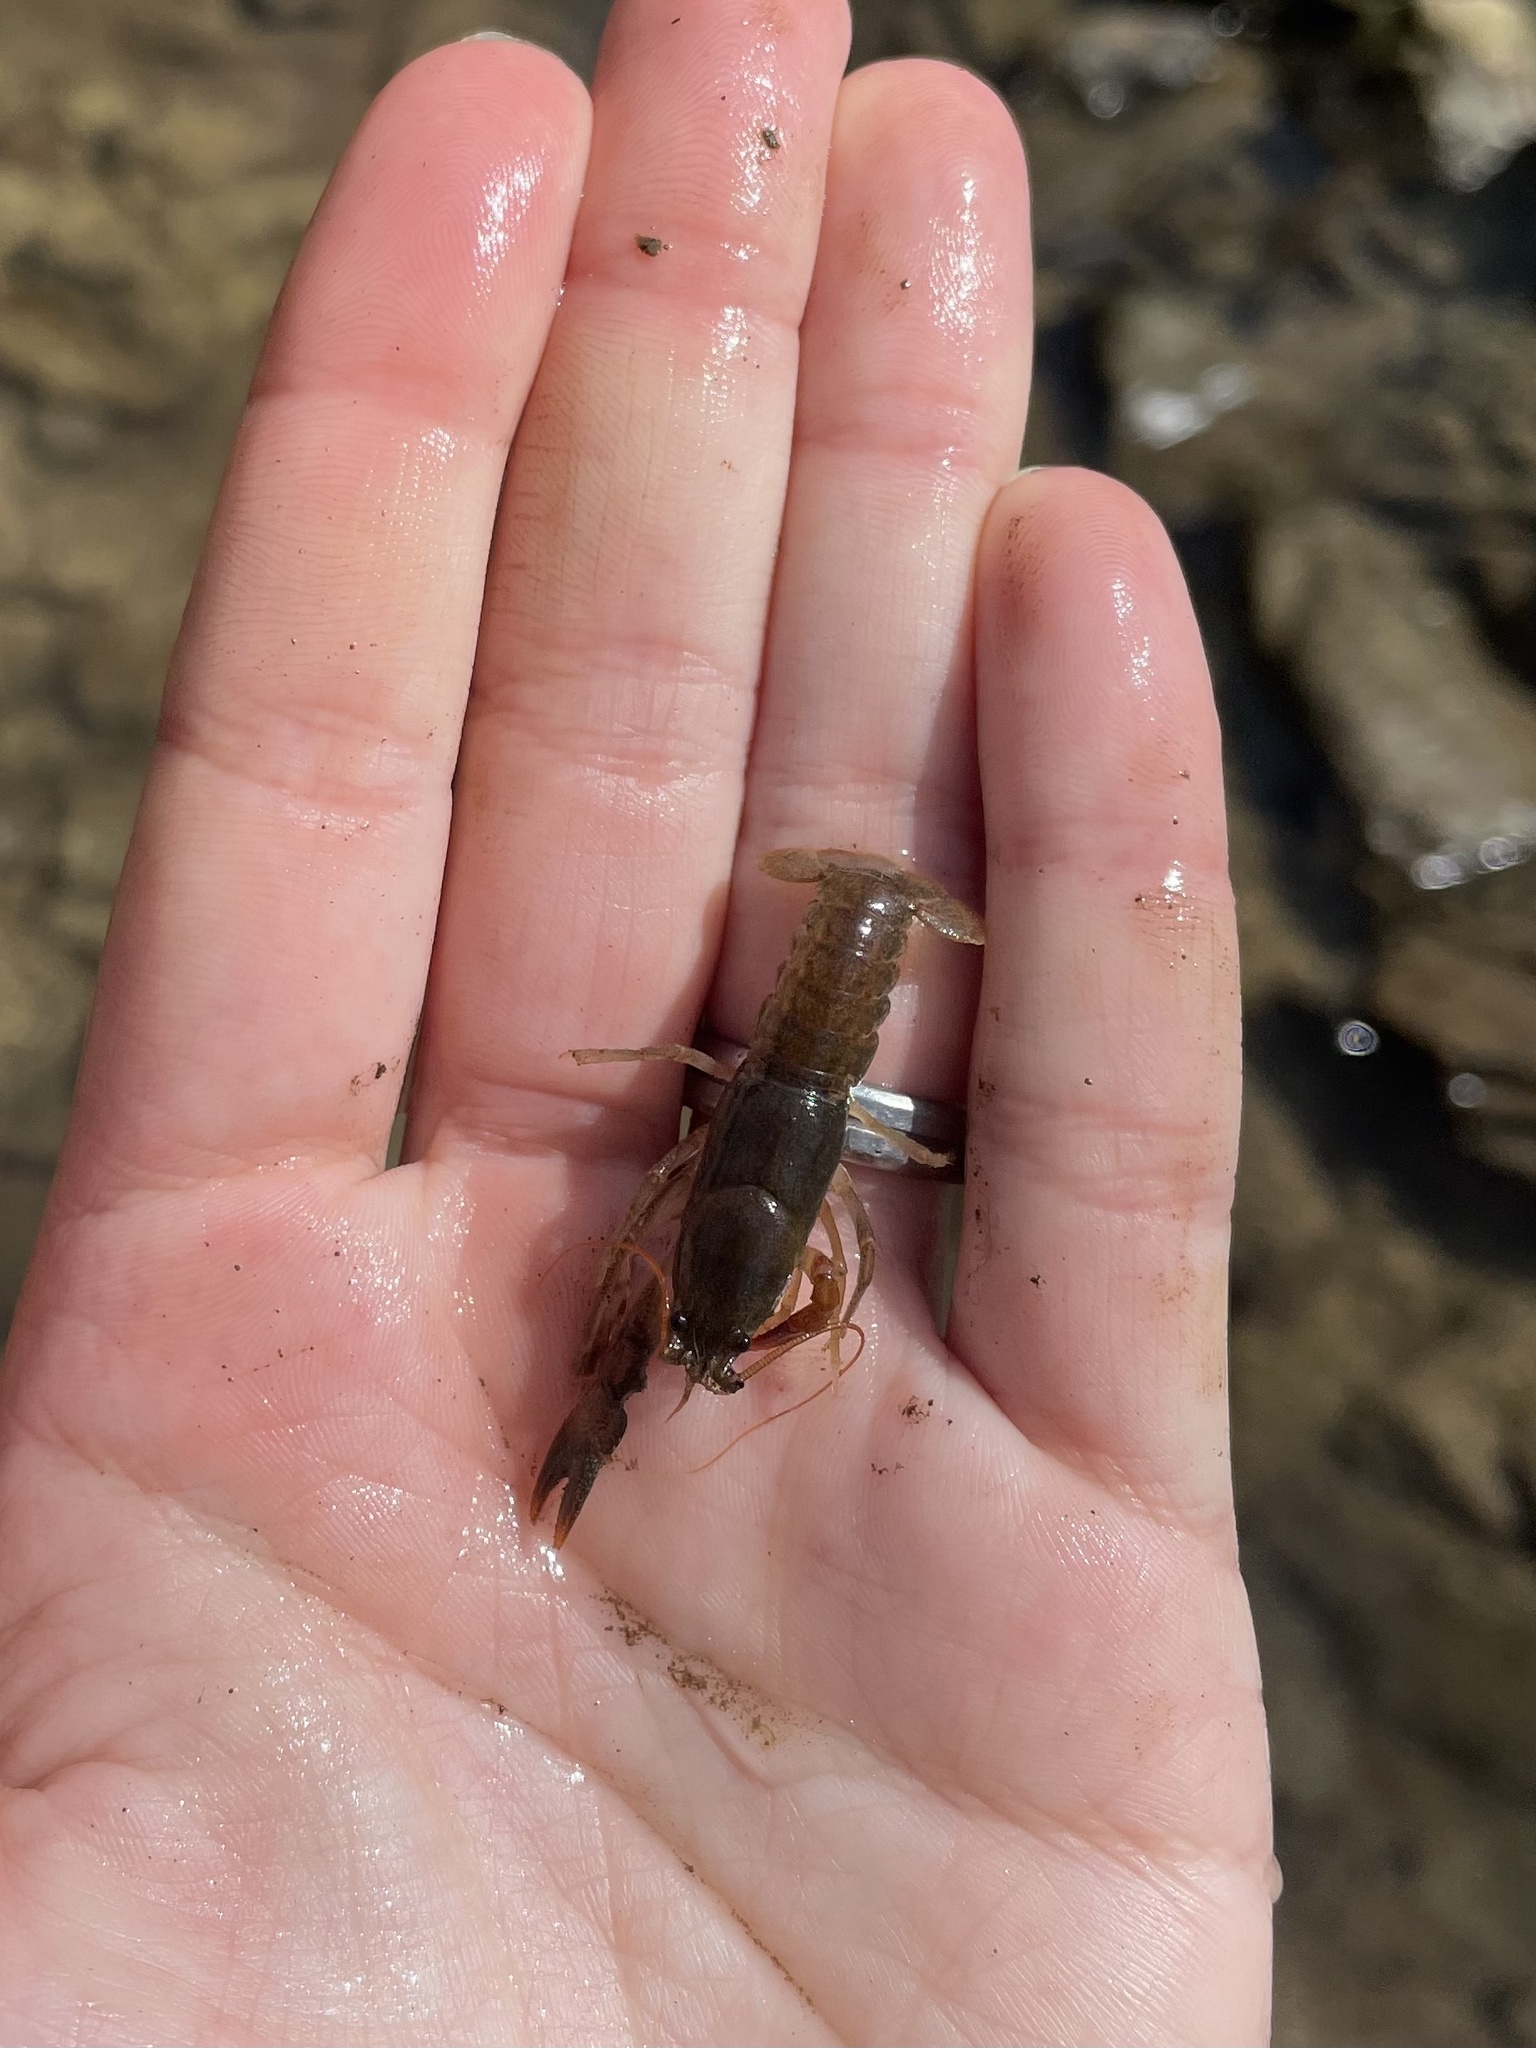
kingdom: Animalia
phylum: Arthropoda
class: Malacostraca
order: Decapoda
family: Cambaridae
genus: Cambarus
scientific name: Cambarus bartonii
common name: Appalachian brook crayfish
